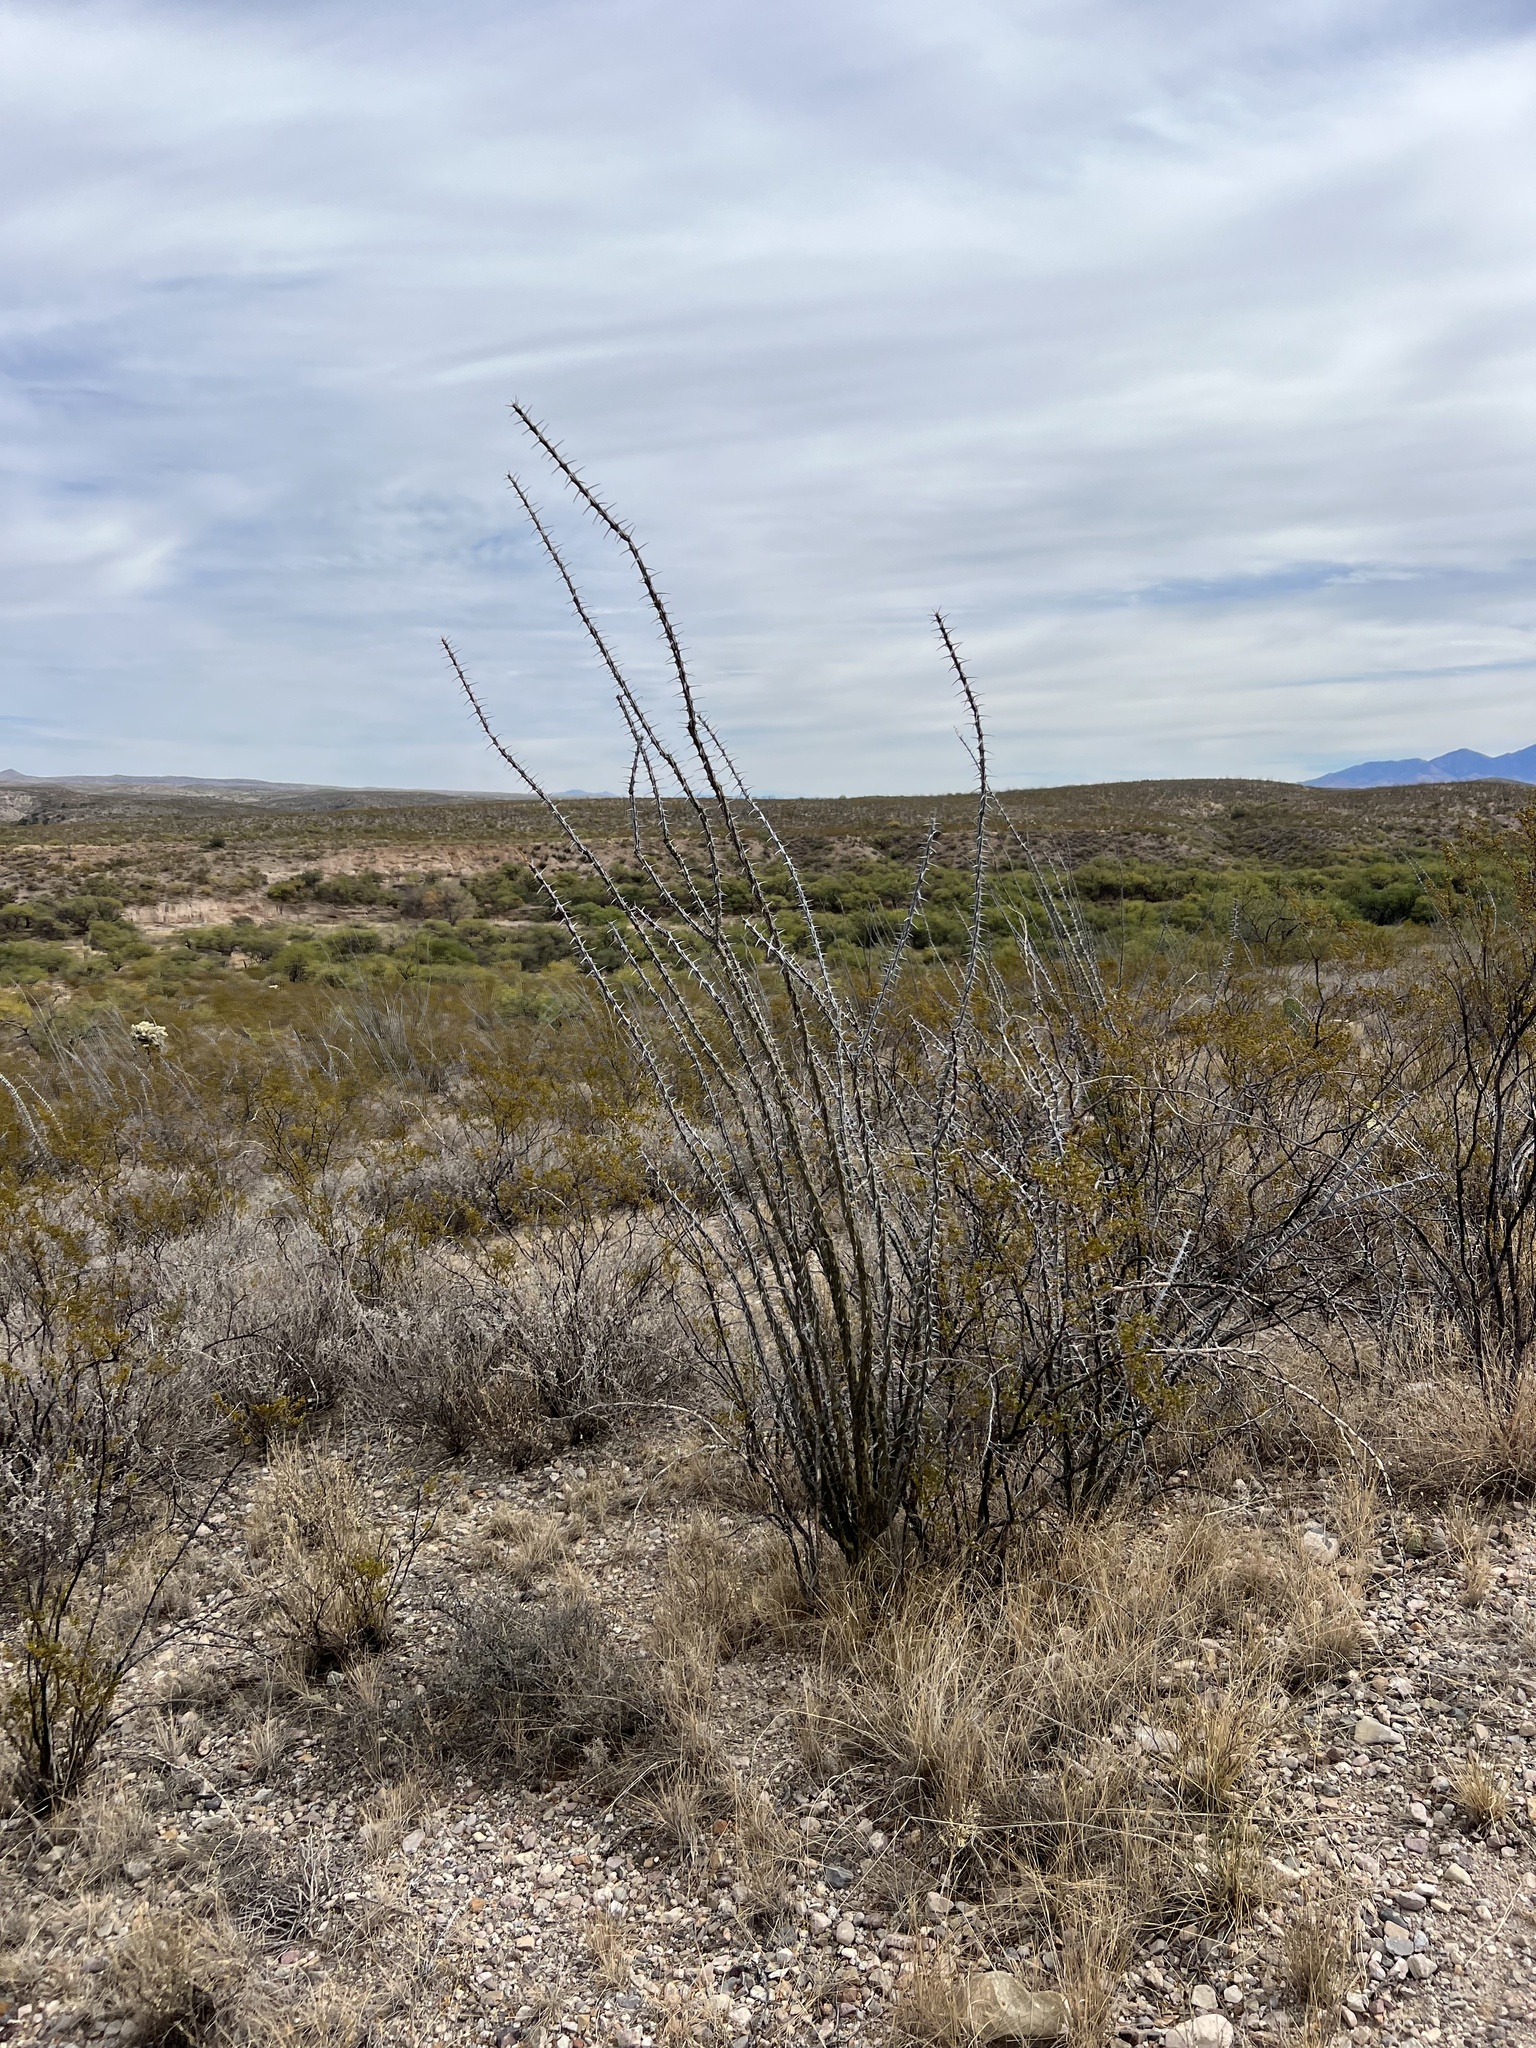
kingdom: Plantae
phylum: Tracheophyta
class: Magnoliopsida
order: Ericales
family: Fouquieriaceae
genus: Fouquieria
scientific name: Fouquieria splendens
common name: Vine-cactus
